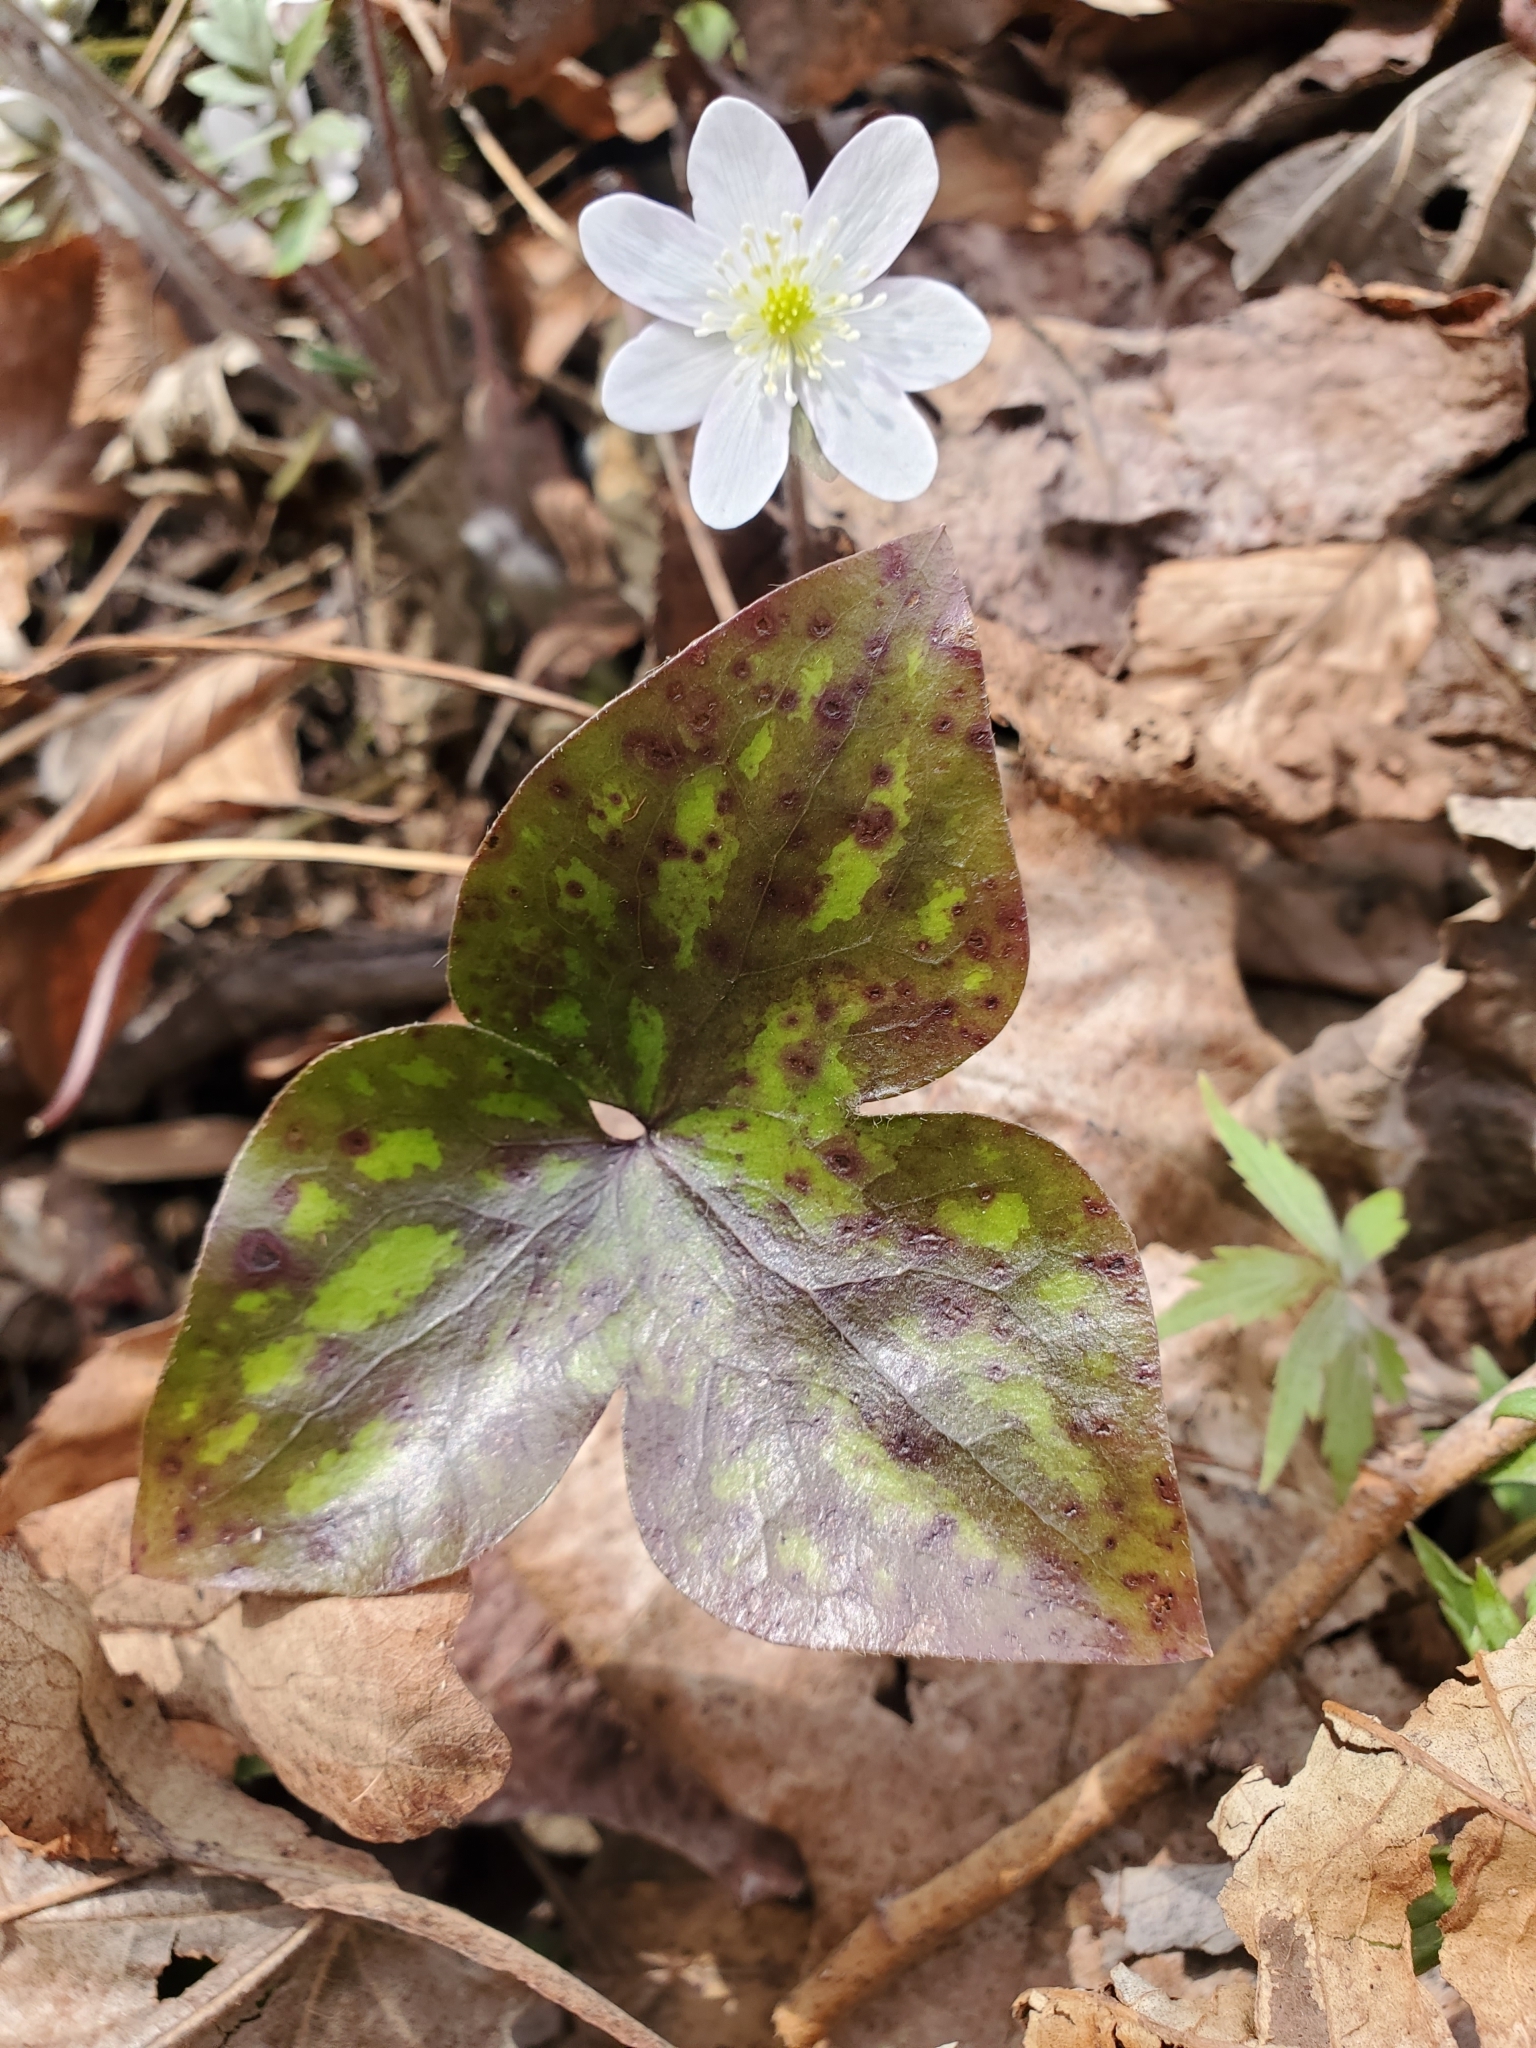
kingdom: Plantae
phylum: Tracheophyta
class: Magnoliopsida
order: Ranunculales
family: Ranunculaceae
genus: Hepatica
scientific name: Hepatica acutiloba
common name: Sharp-lobed hepatica
